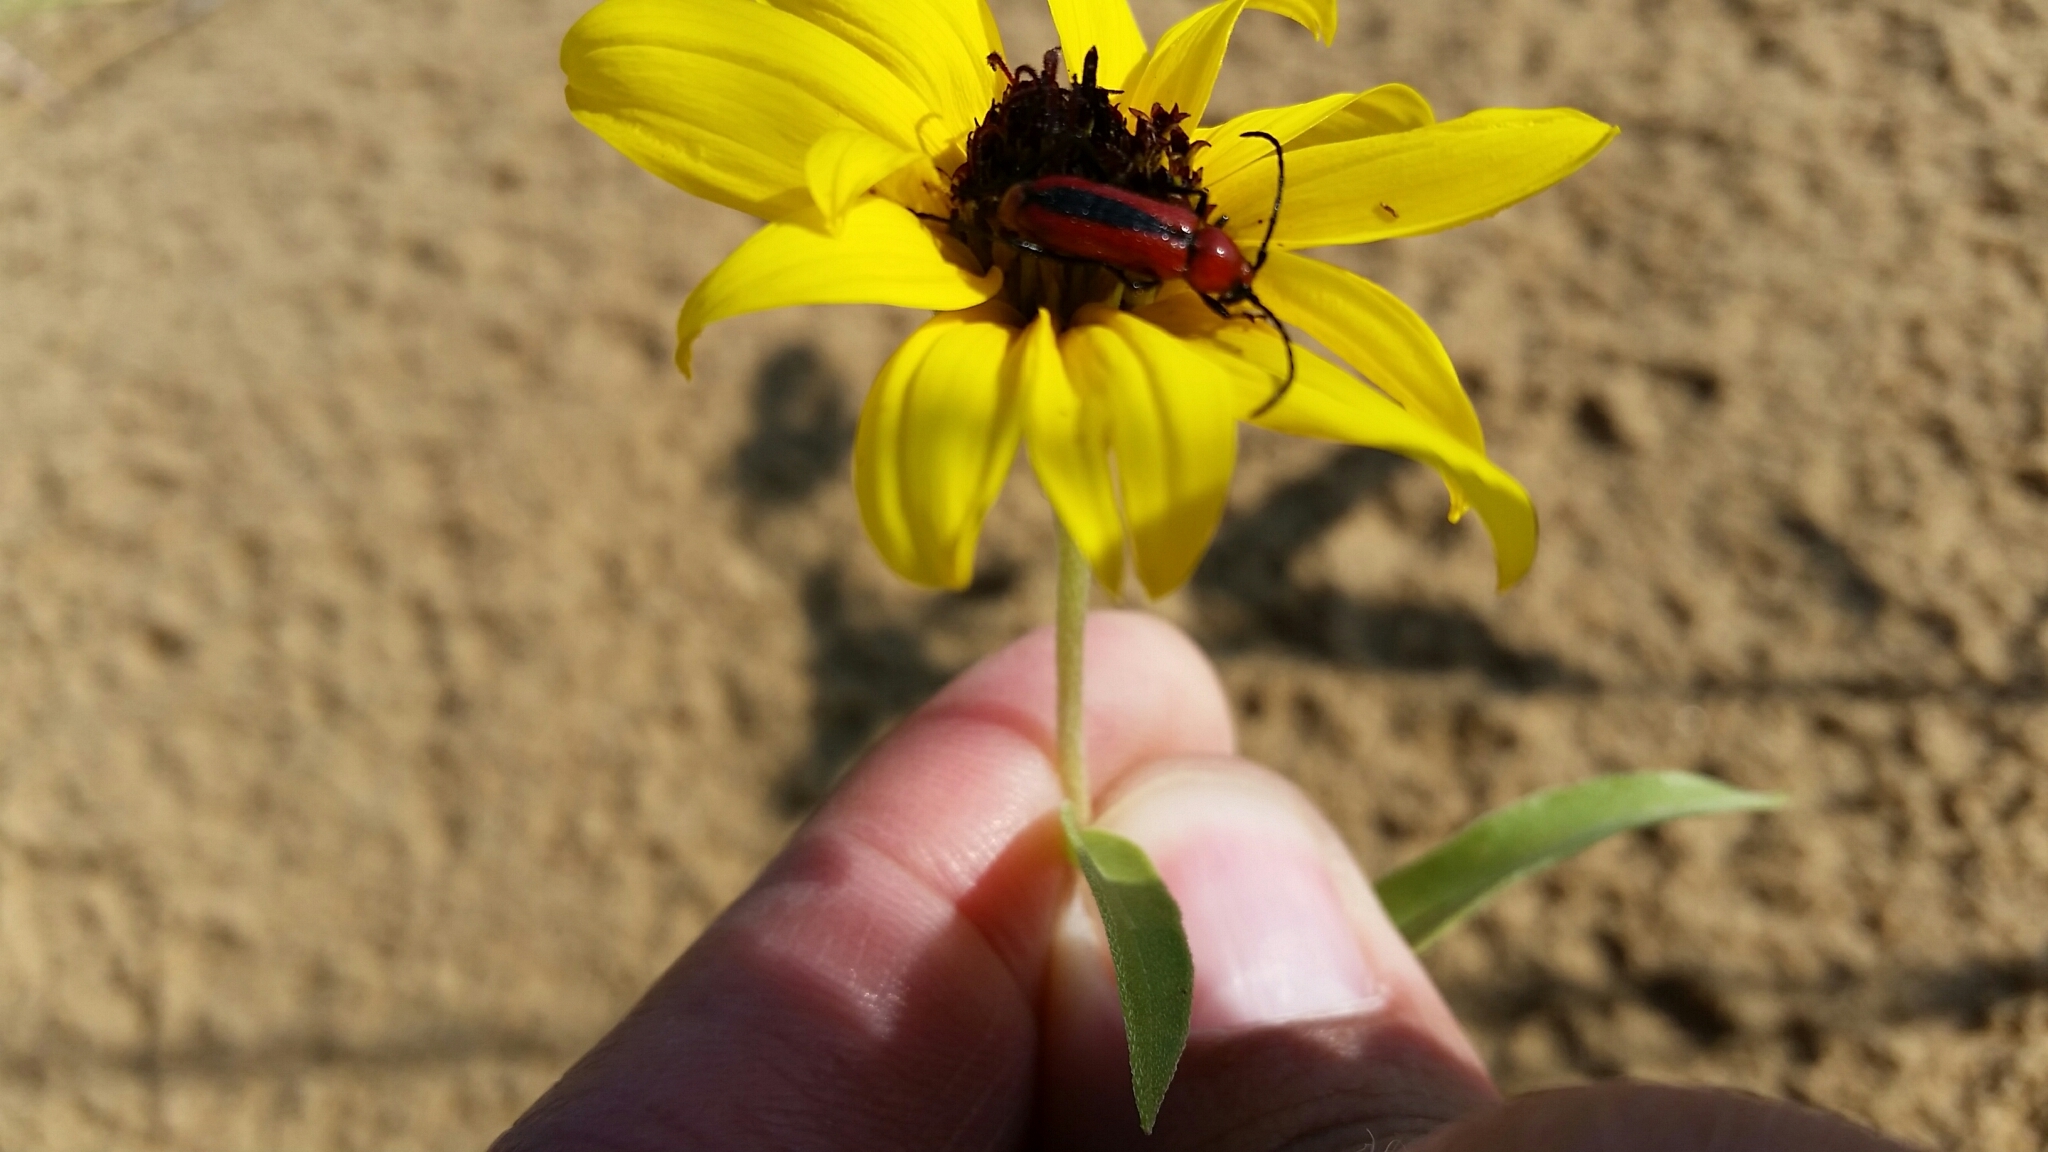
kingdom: Animalia
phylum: Arthropoda
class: Insecta
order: Coleoptera
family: Cerambycidae
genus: Batyle
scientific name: Batyle suturalis
